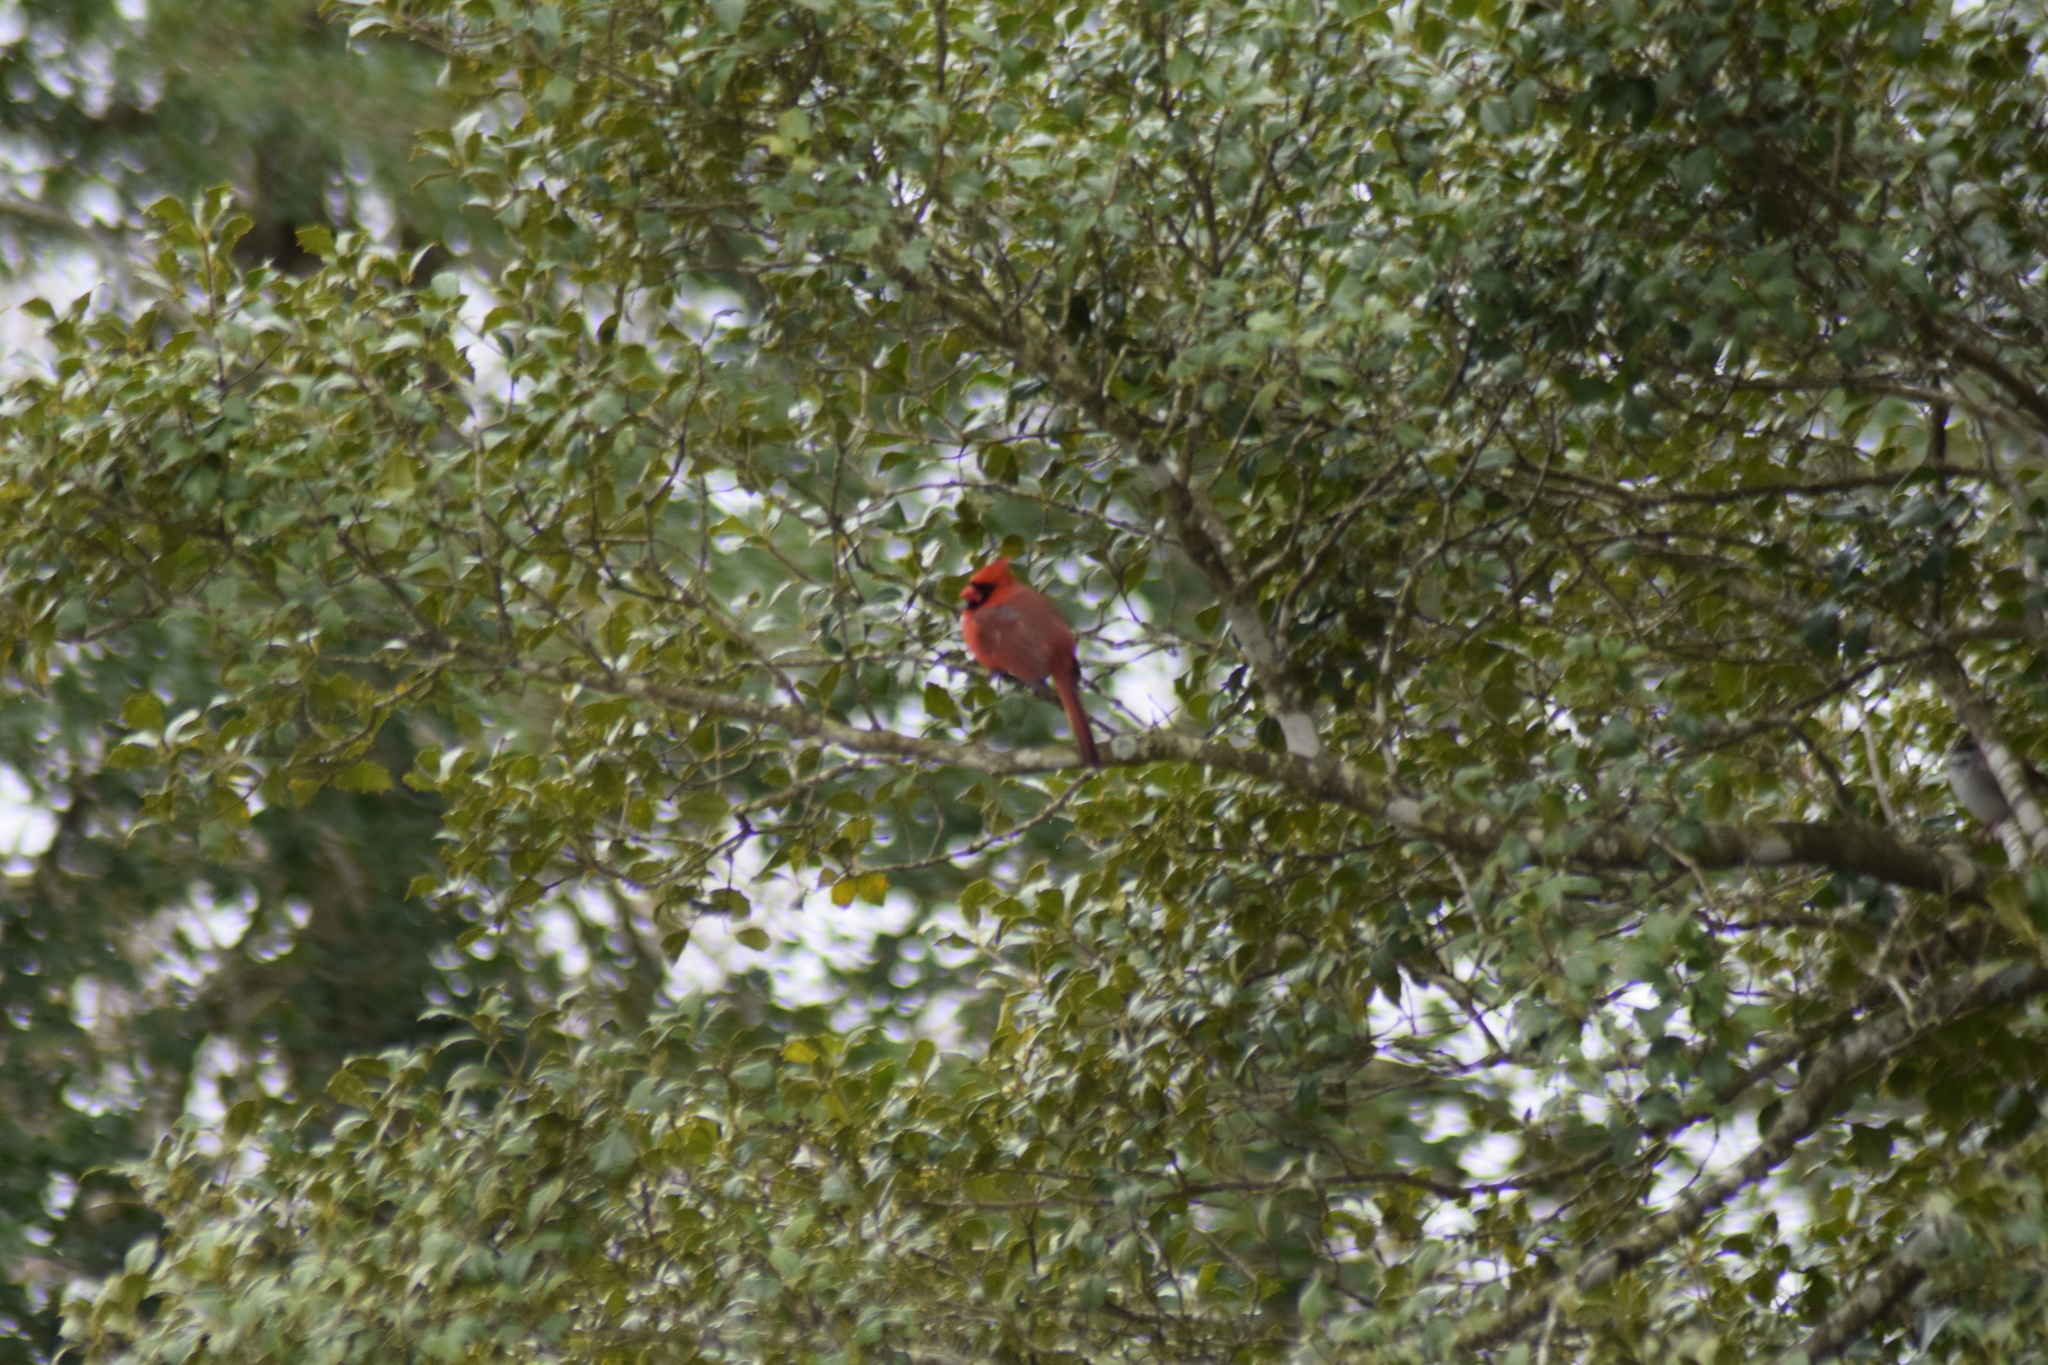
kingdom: Animalia
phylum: Chordata
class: Aves
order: Passeriformes
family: Cardinalidae
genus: Cardinalis
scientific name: Cardinalis cardinalis
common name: Northern cardinal
